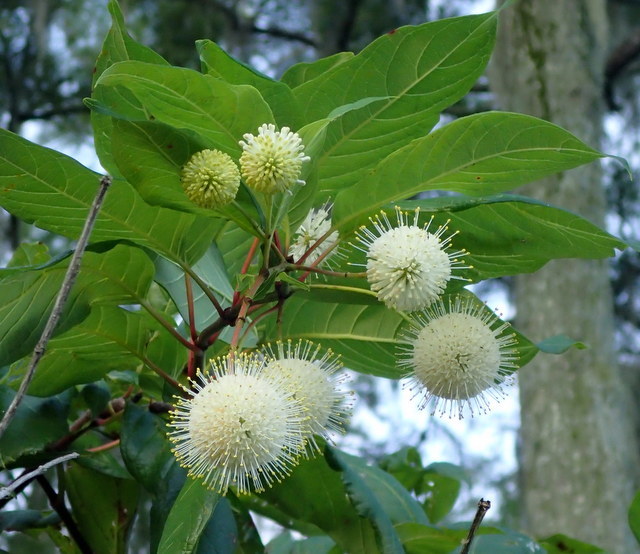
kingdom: Plantae
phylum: Tracheophyta
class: Magnoliopsida
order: Gentianales
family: Rubiaceae
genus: Cephalanthus
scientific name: Cephalanthus occidentalis
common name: Button-willow
